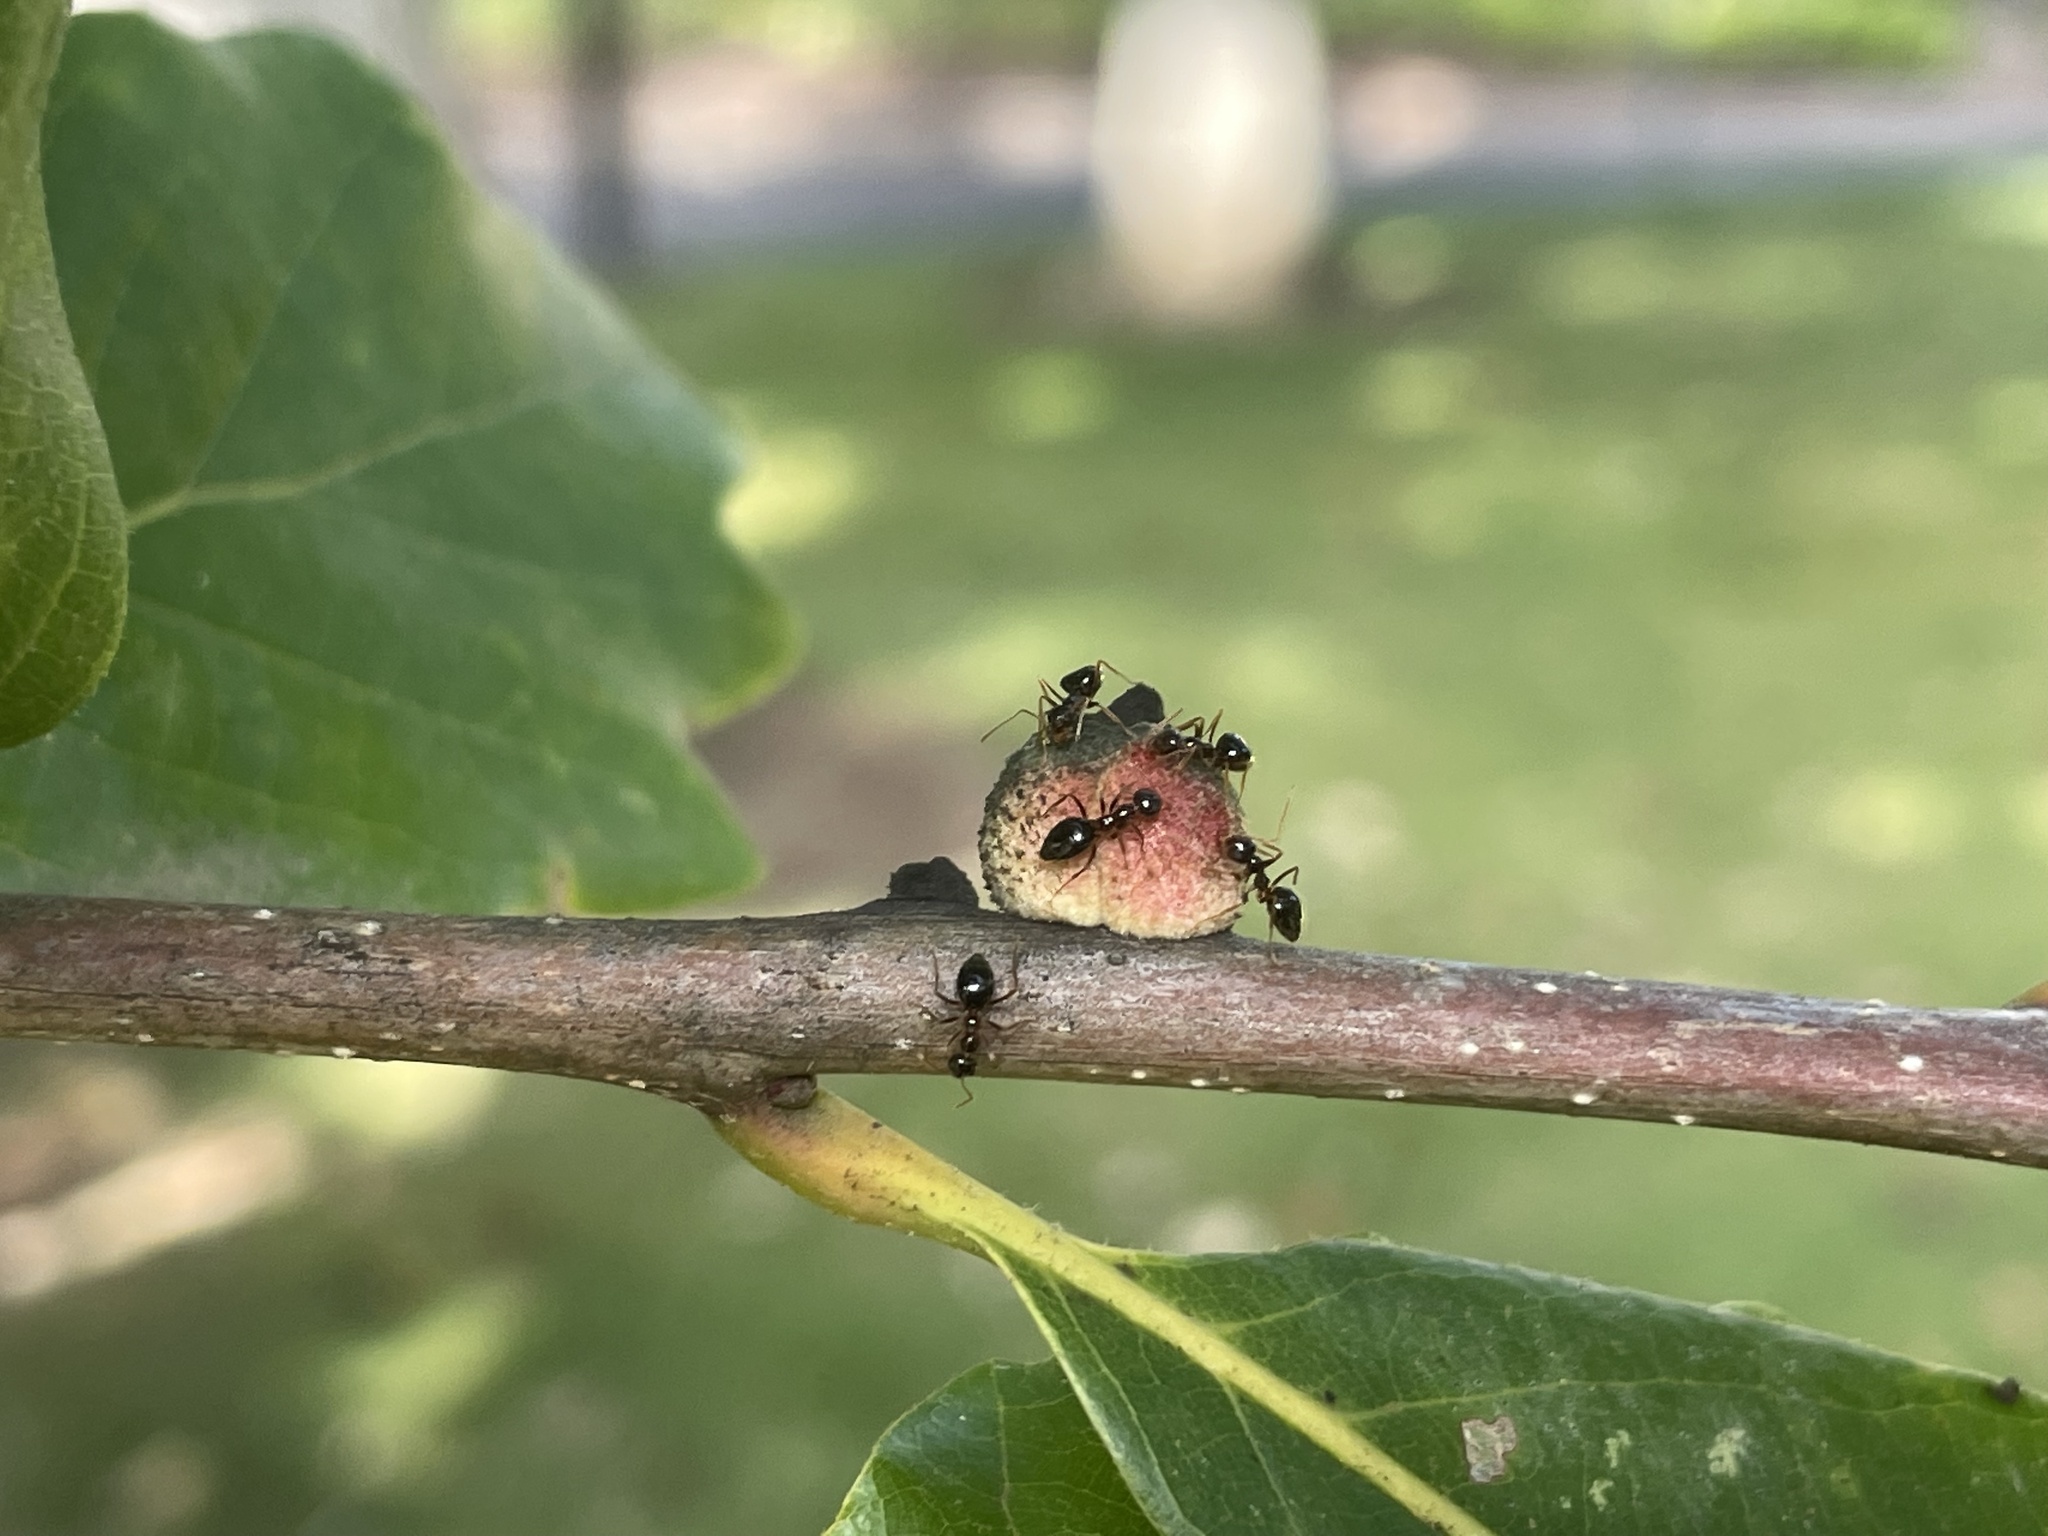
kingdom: Animalia
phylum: Arthropoda
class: Insecta
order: Hymenoptera
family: Cynipidae
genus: Disholcaspis
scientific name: Disholcaspis
